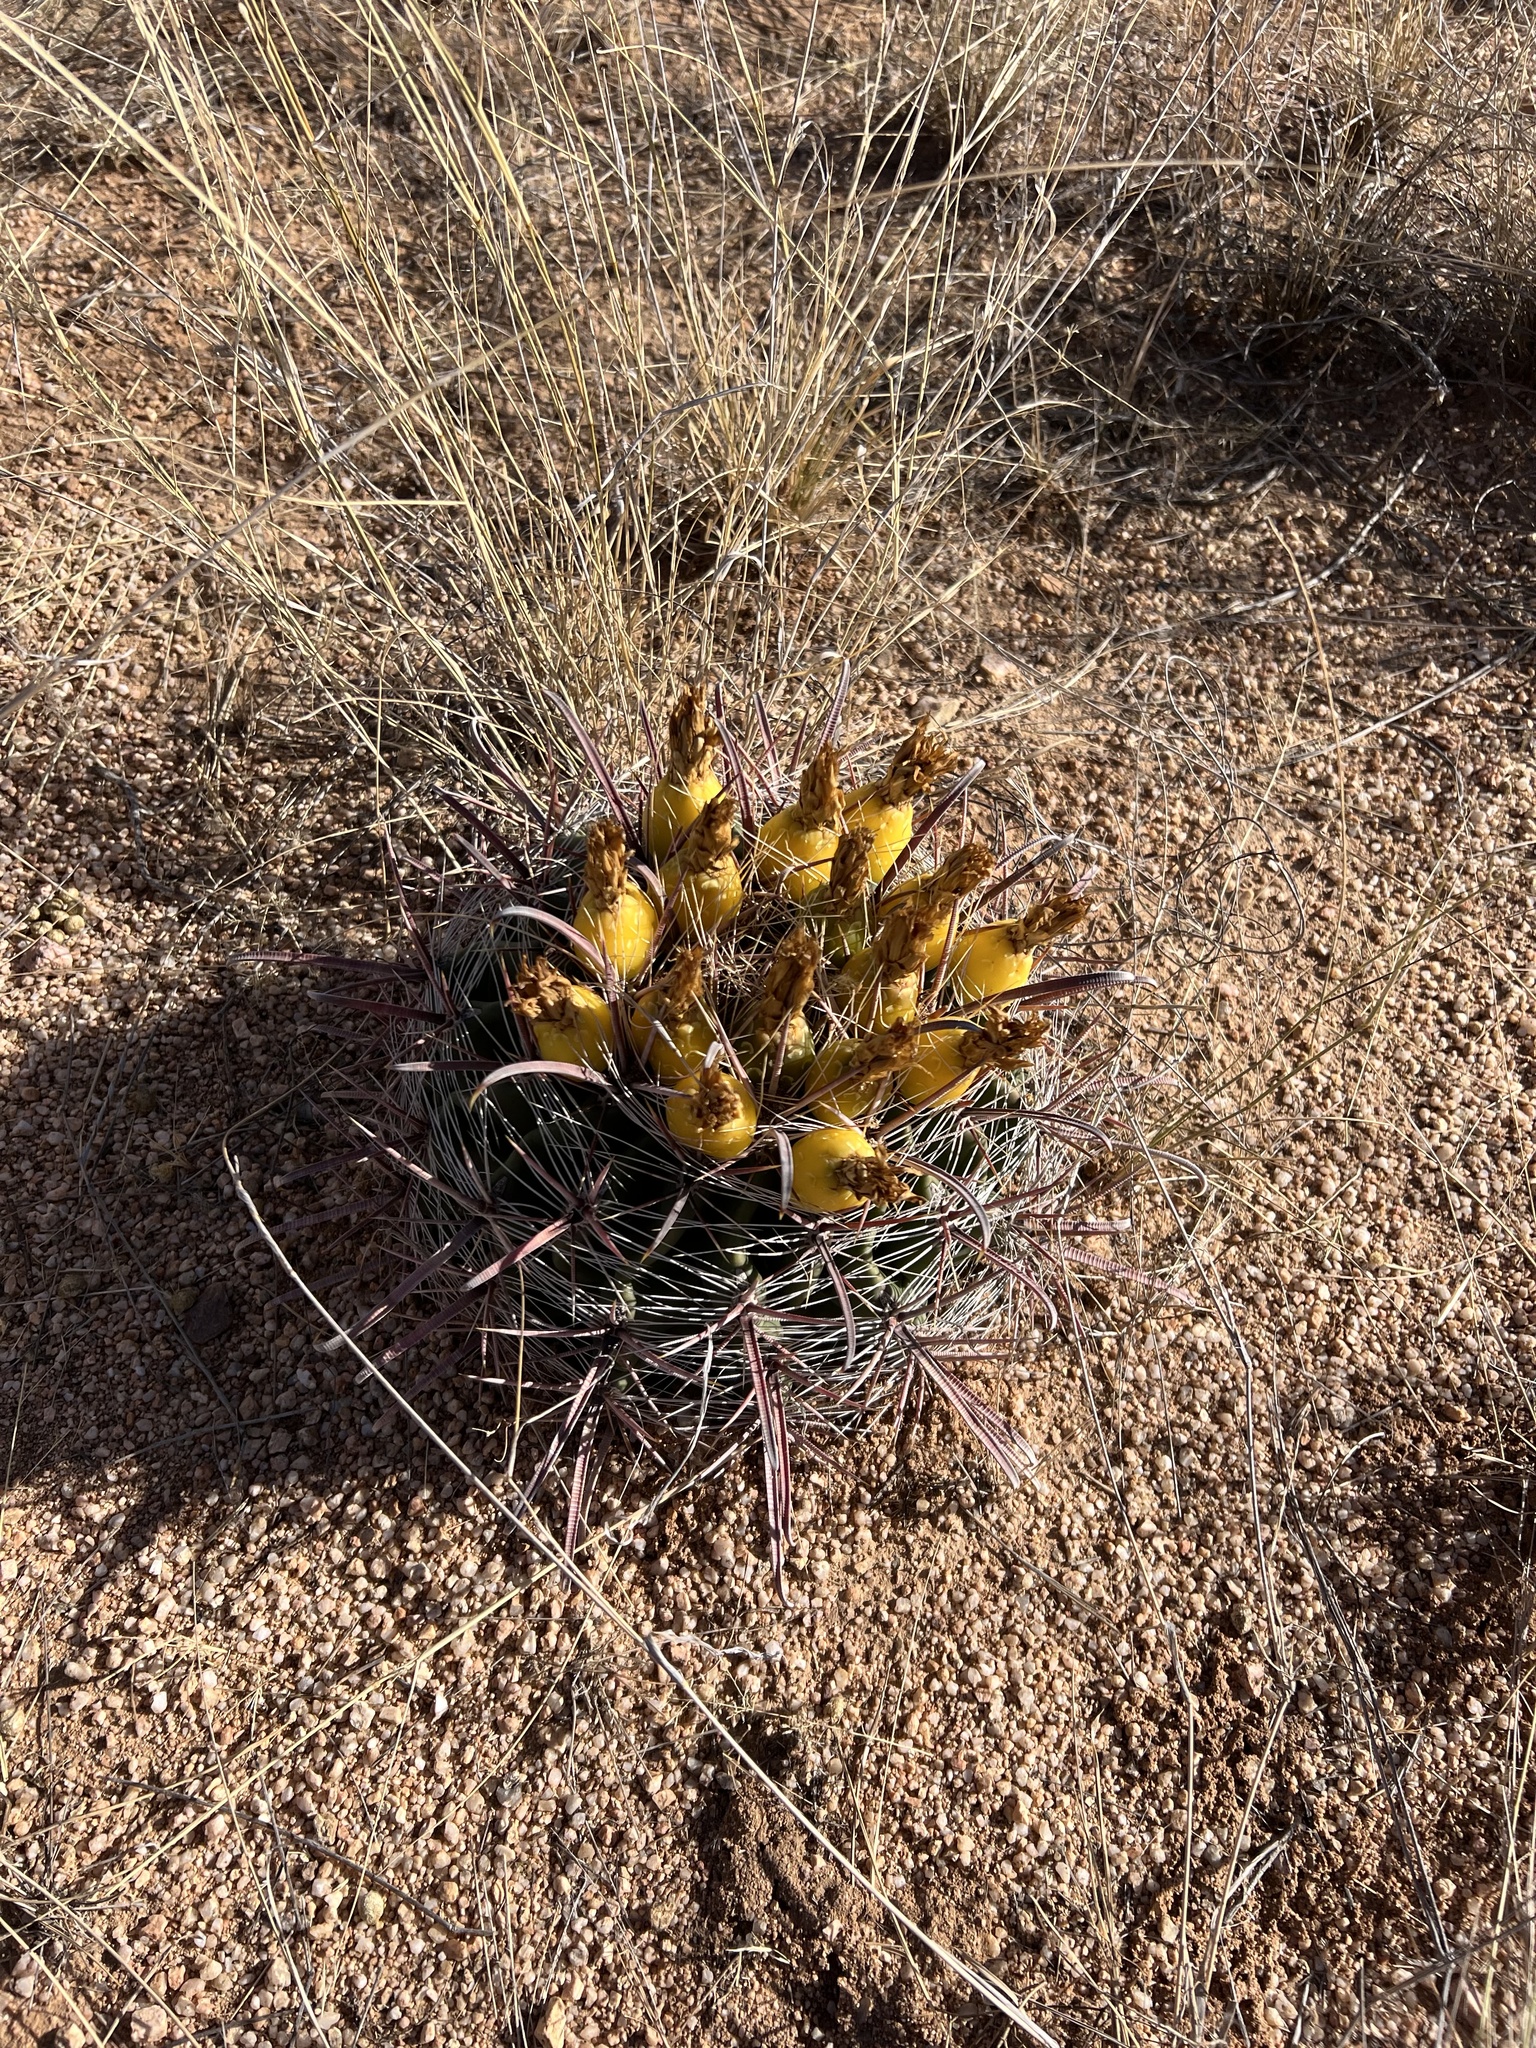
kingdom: Plantae
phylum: Tracheophyta
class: Magnoliopsida
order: Caryophyllales
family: Cactaceae
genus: Ferocactus
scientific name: Ferocactus wislizeni
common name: Candy barrel cactus
